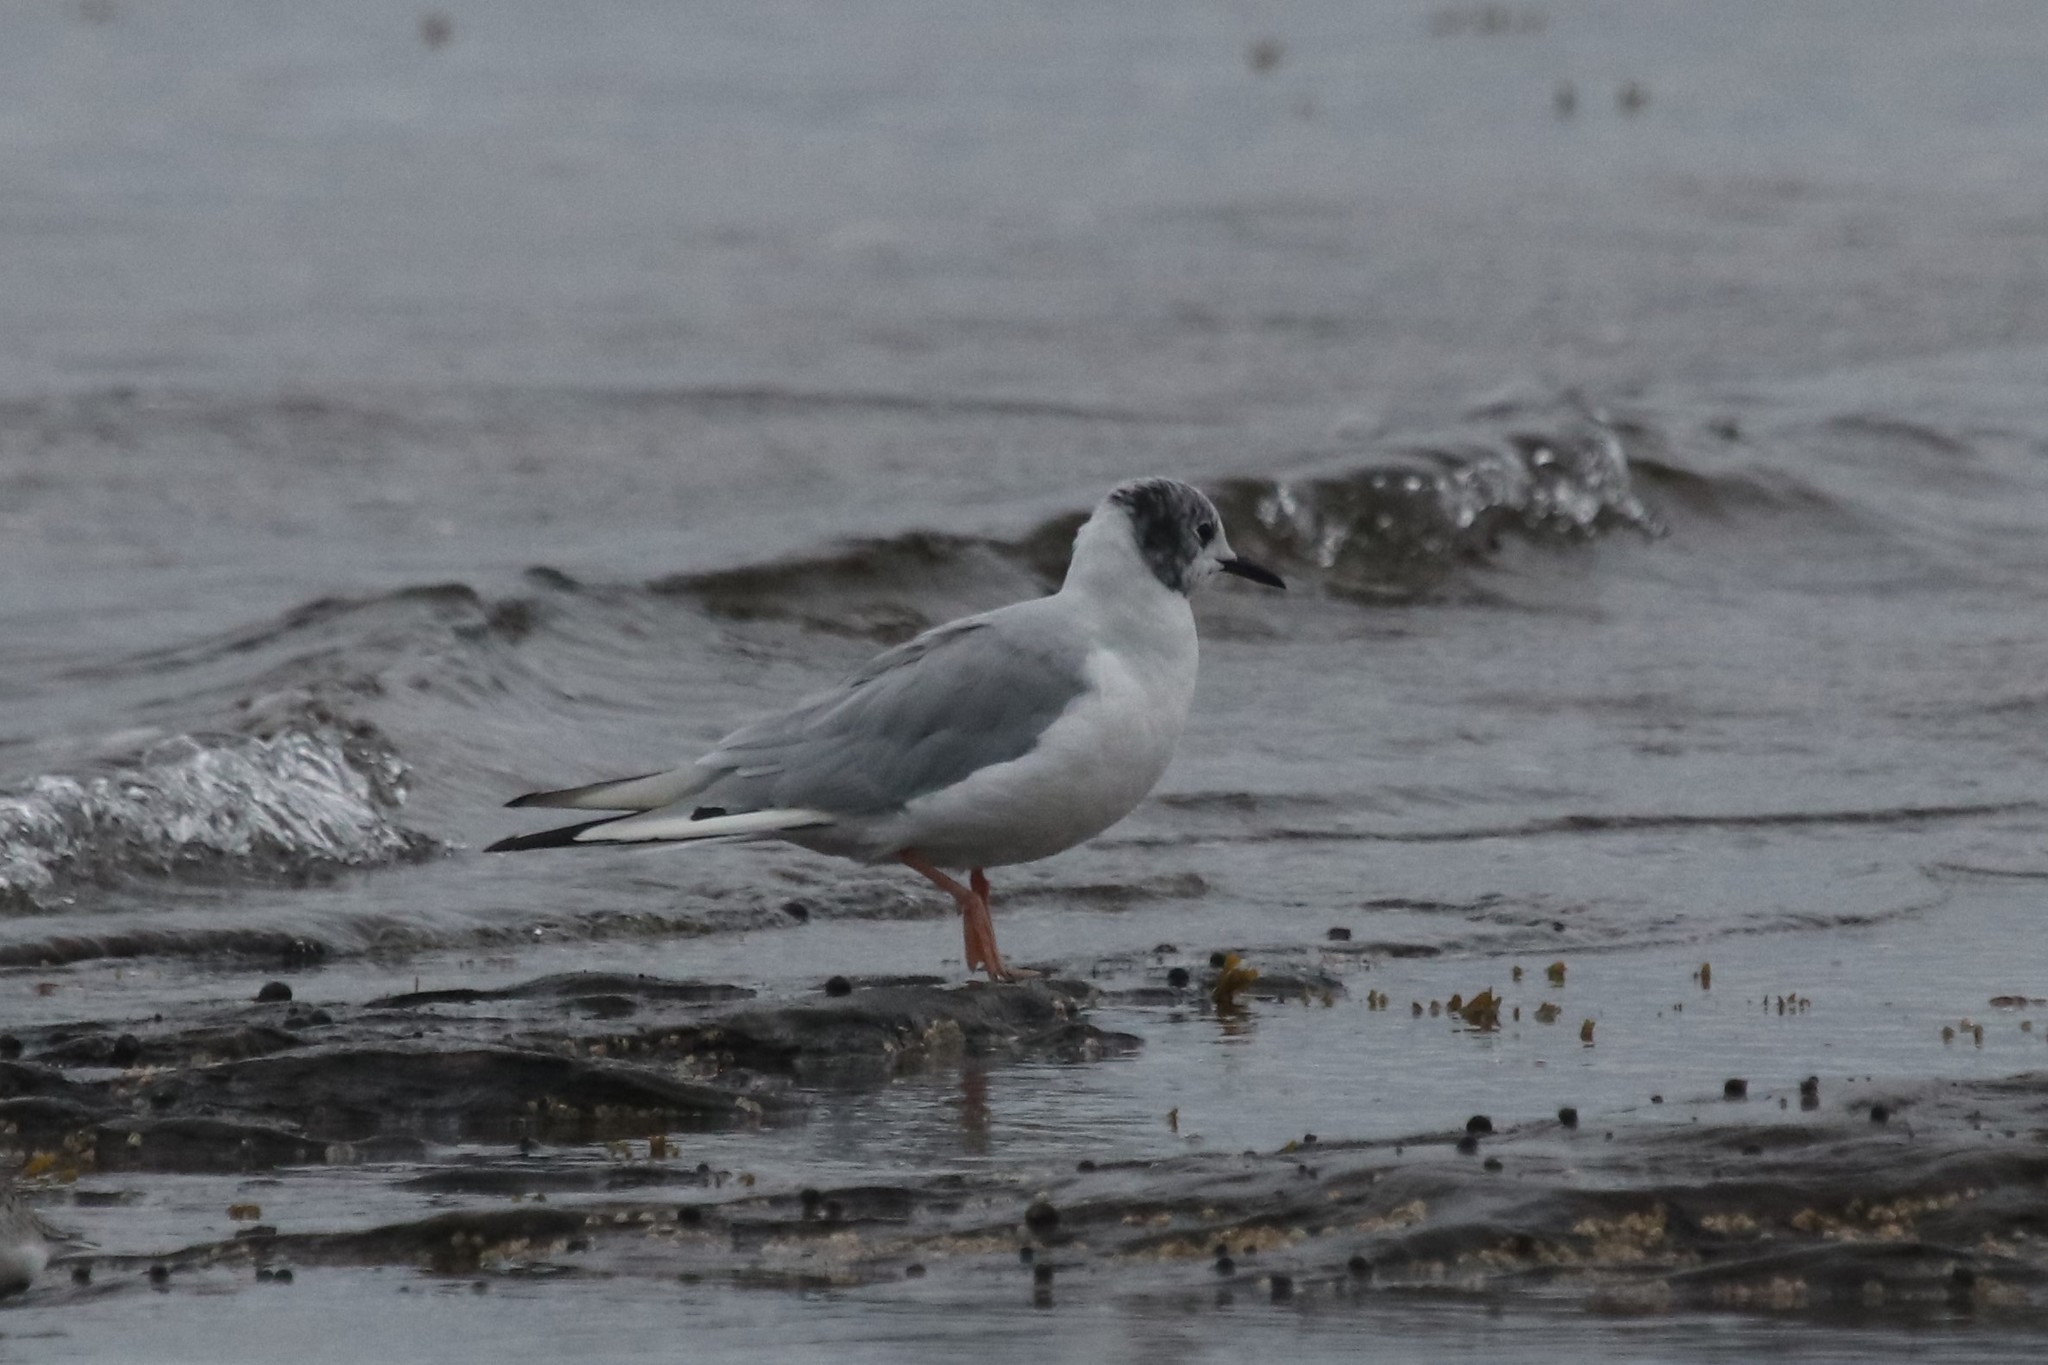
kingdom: Animalia
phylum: Chordata
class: Aves
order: Charadriiformes
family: Laridae
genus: Chroicocephalus
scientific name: Chroicocephalus philadelphia
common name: Bonaparte's gull
